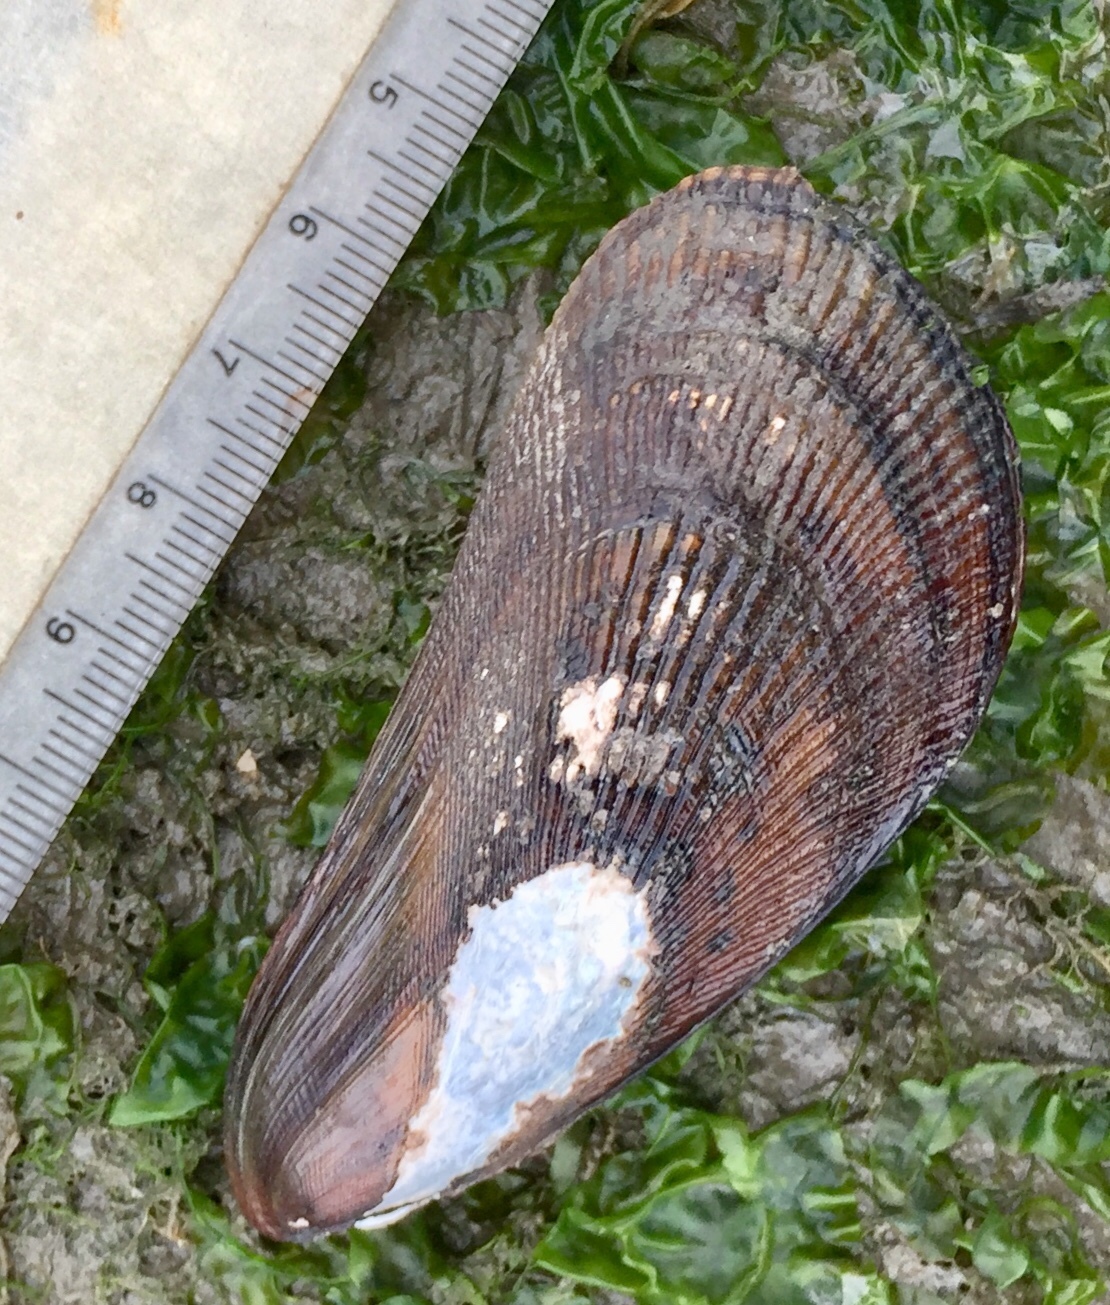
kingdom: Animalia
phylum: Mollusca
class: Bivalvia
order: Mytilida
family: Mytilidae
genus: Geukensia
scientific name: Geukensia demissa
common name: Ribbed mussel
